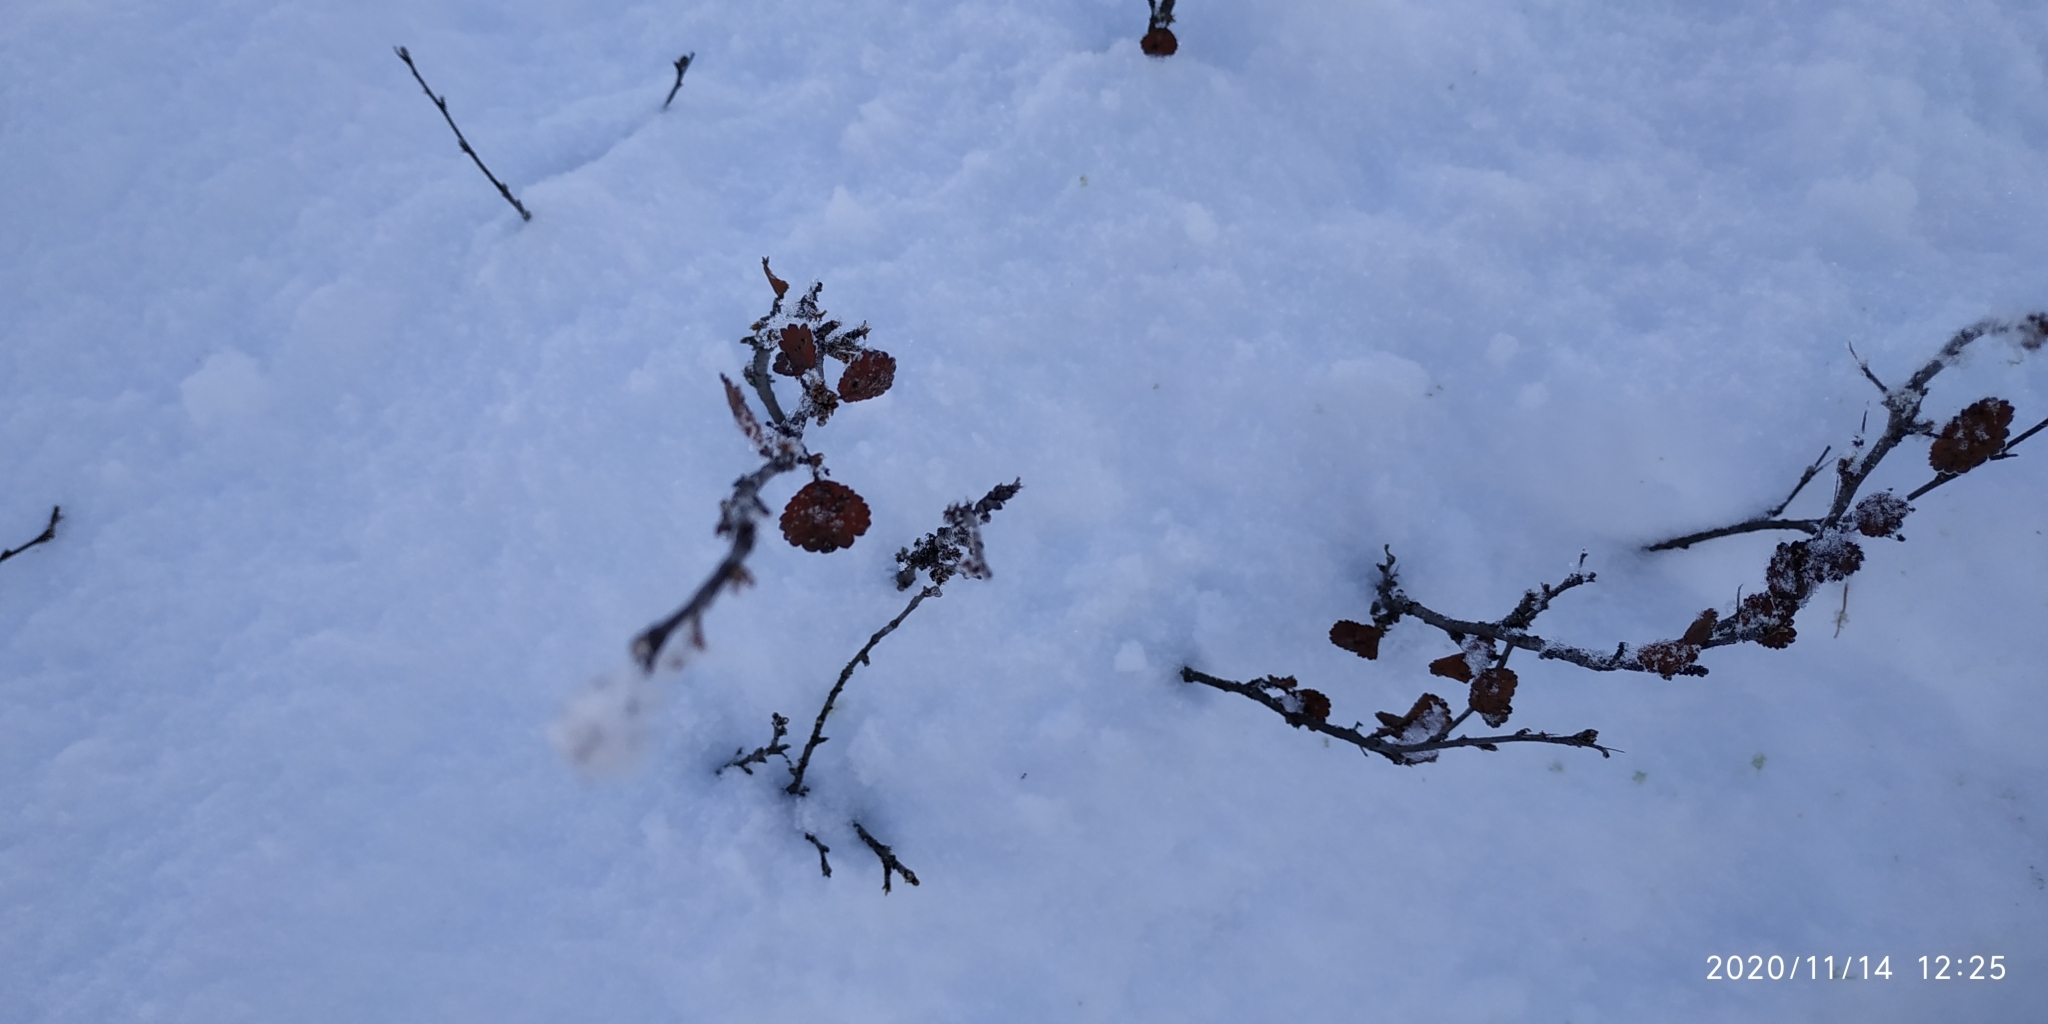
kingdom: Plantae
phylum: Tracheophyta
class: Magnoliopsida
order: Fagales
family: Betulaceae
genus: Betula
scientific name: Betula nana
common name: Arctic dwarf birch
